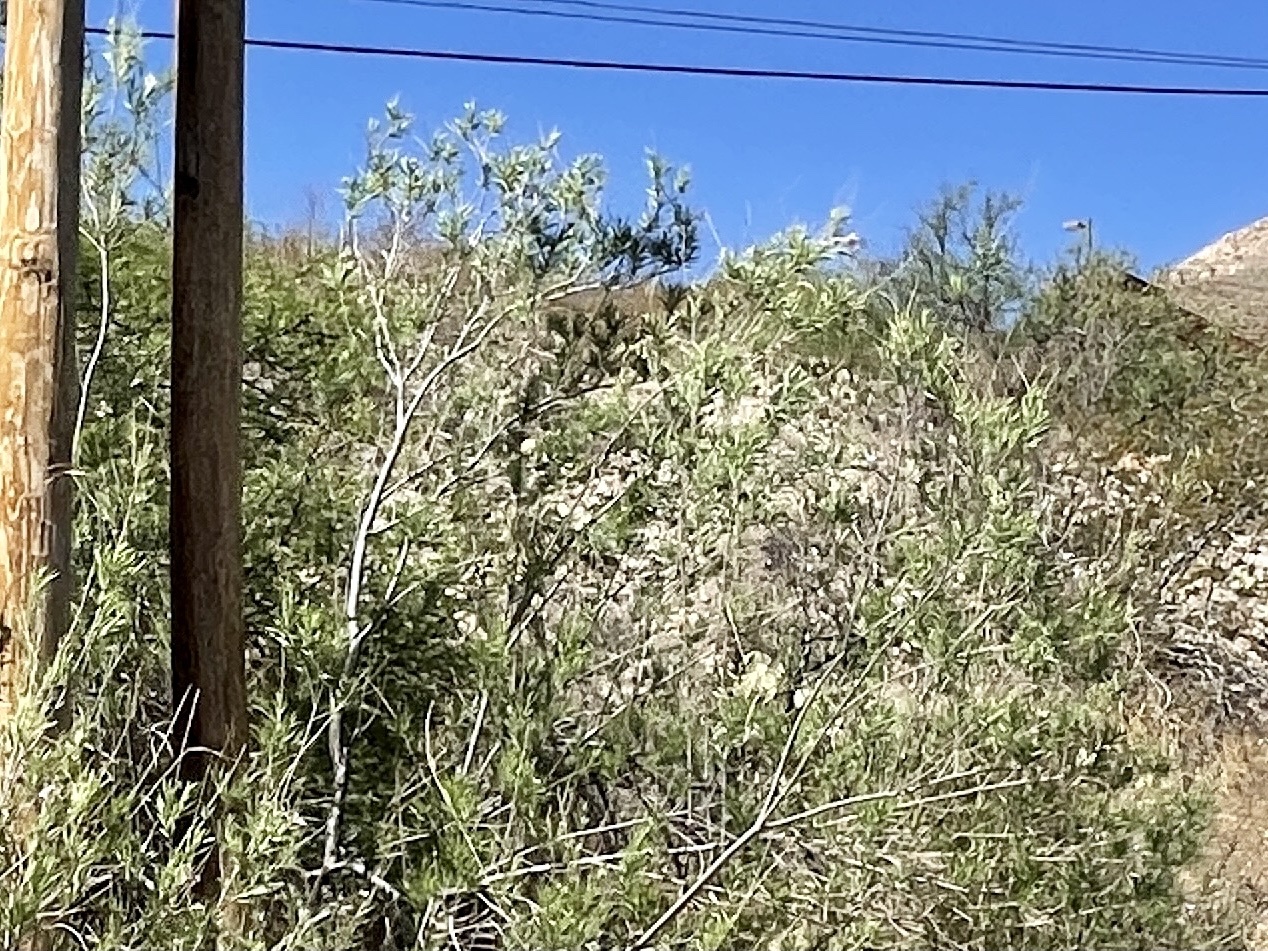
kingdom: Plantae
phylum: Tracheophyta
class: Magnoliopsida
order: Lamiales
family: Bignoniaceae
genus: Chilopsis
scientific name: Chilopsis linearis
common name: Desert-willow
